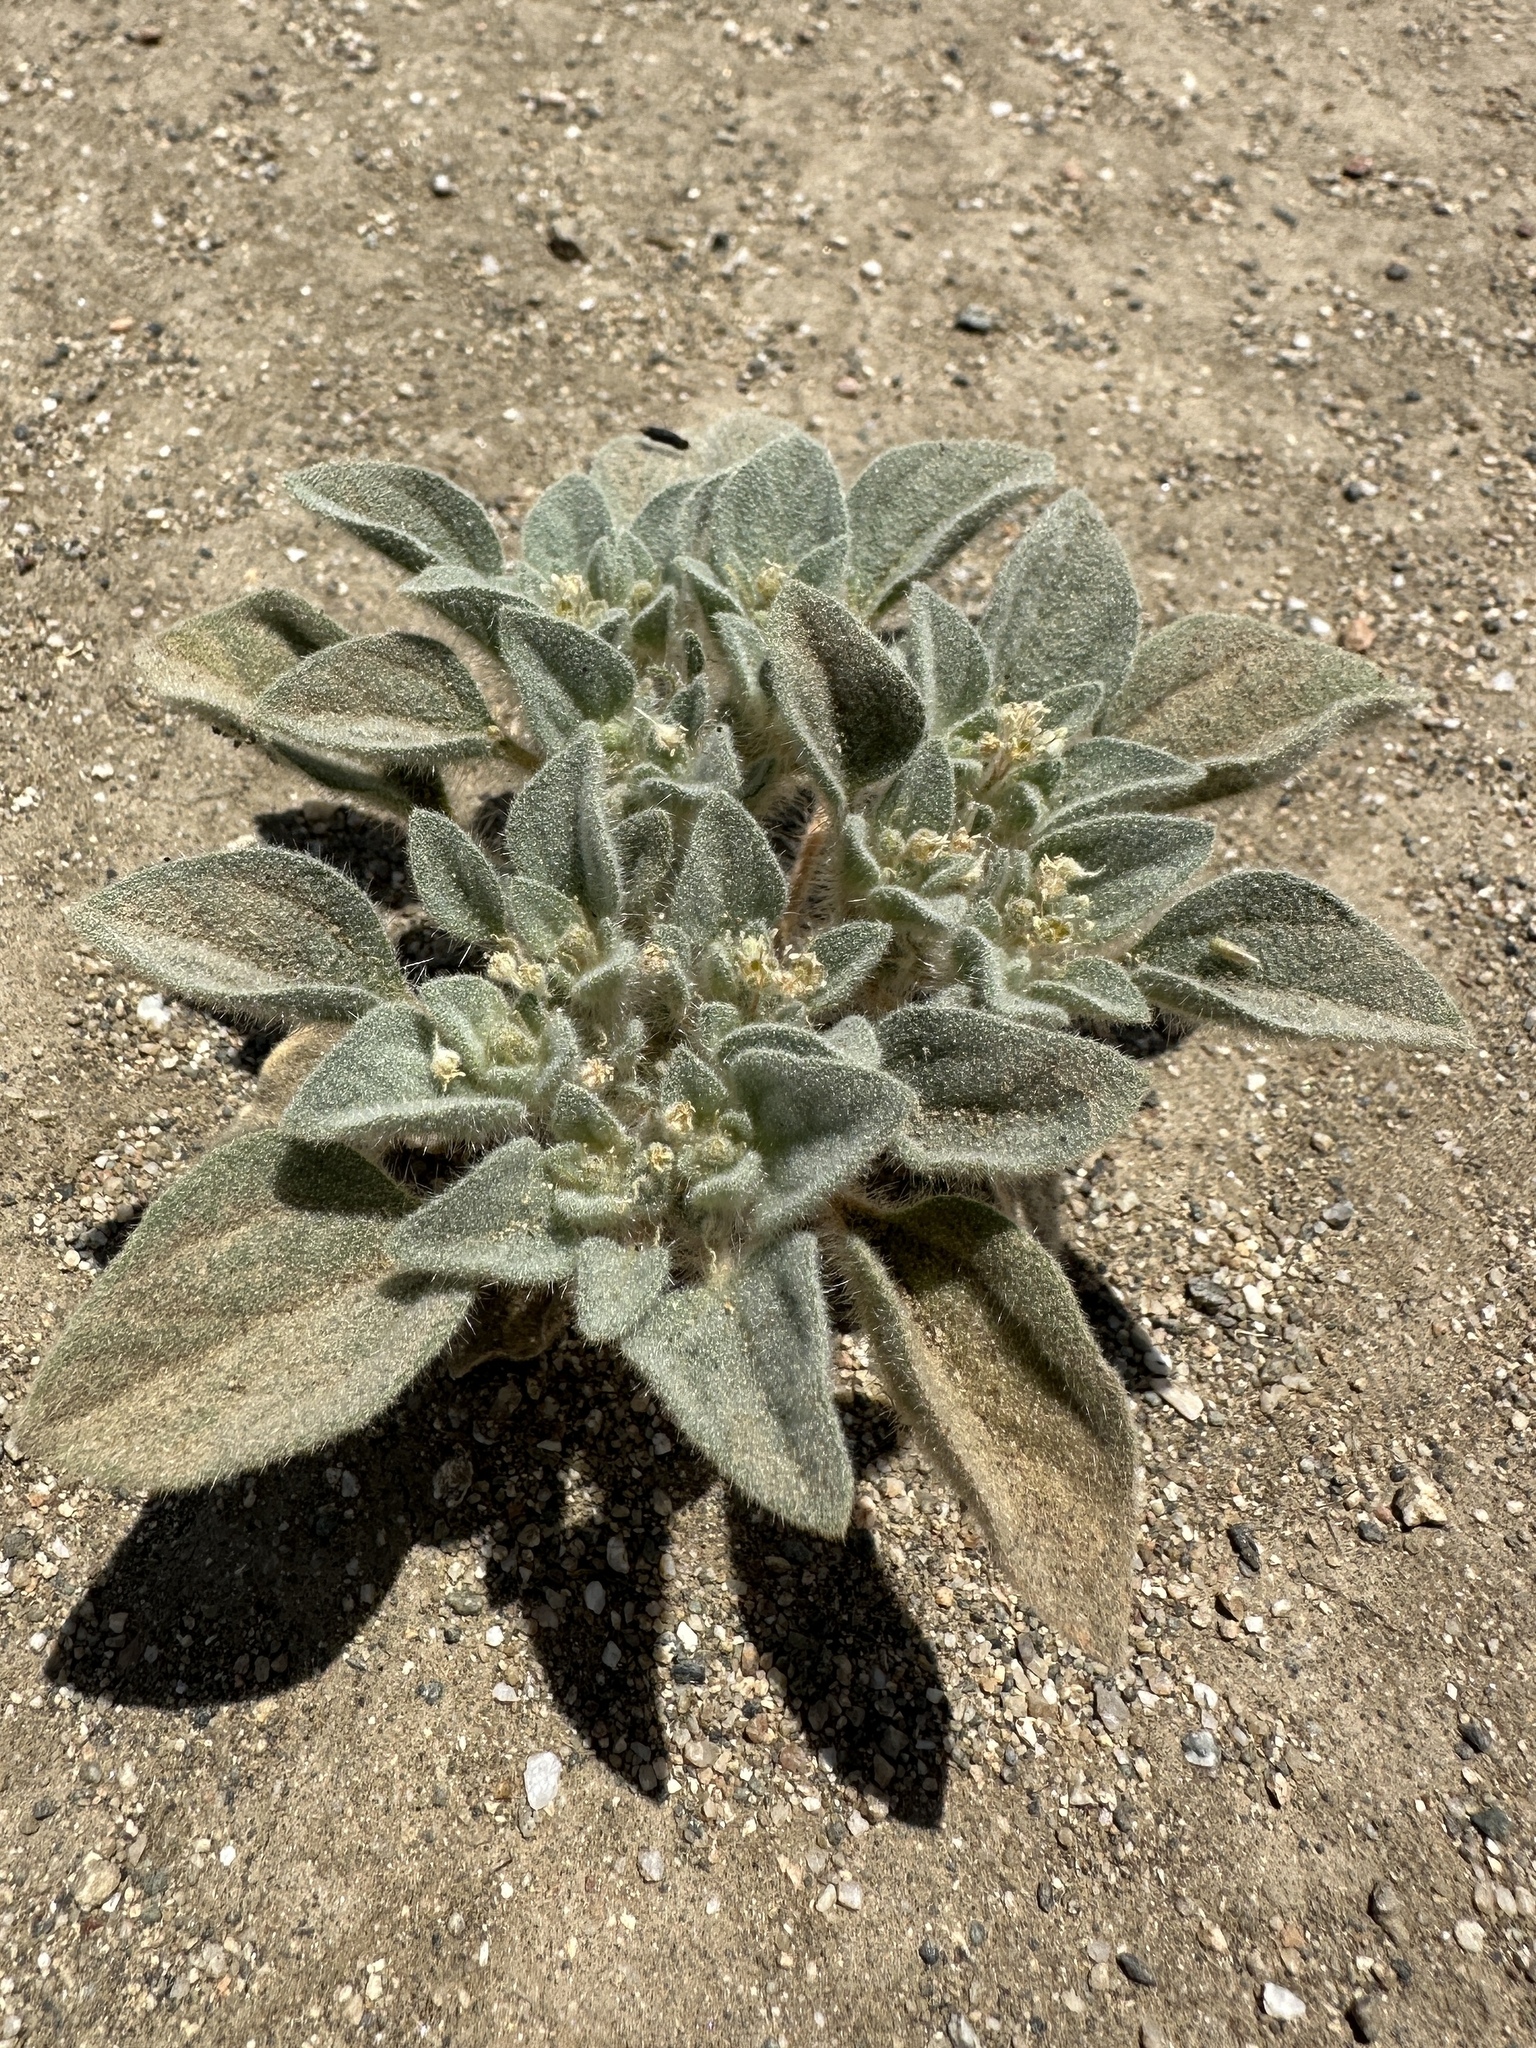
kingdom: Plantae
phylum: Tracheophyta
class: Magnoliopsida
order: Malpighiales
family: Euphorbiaceae
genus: Croton
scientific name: Croton setiger
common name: Dove weed
